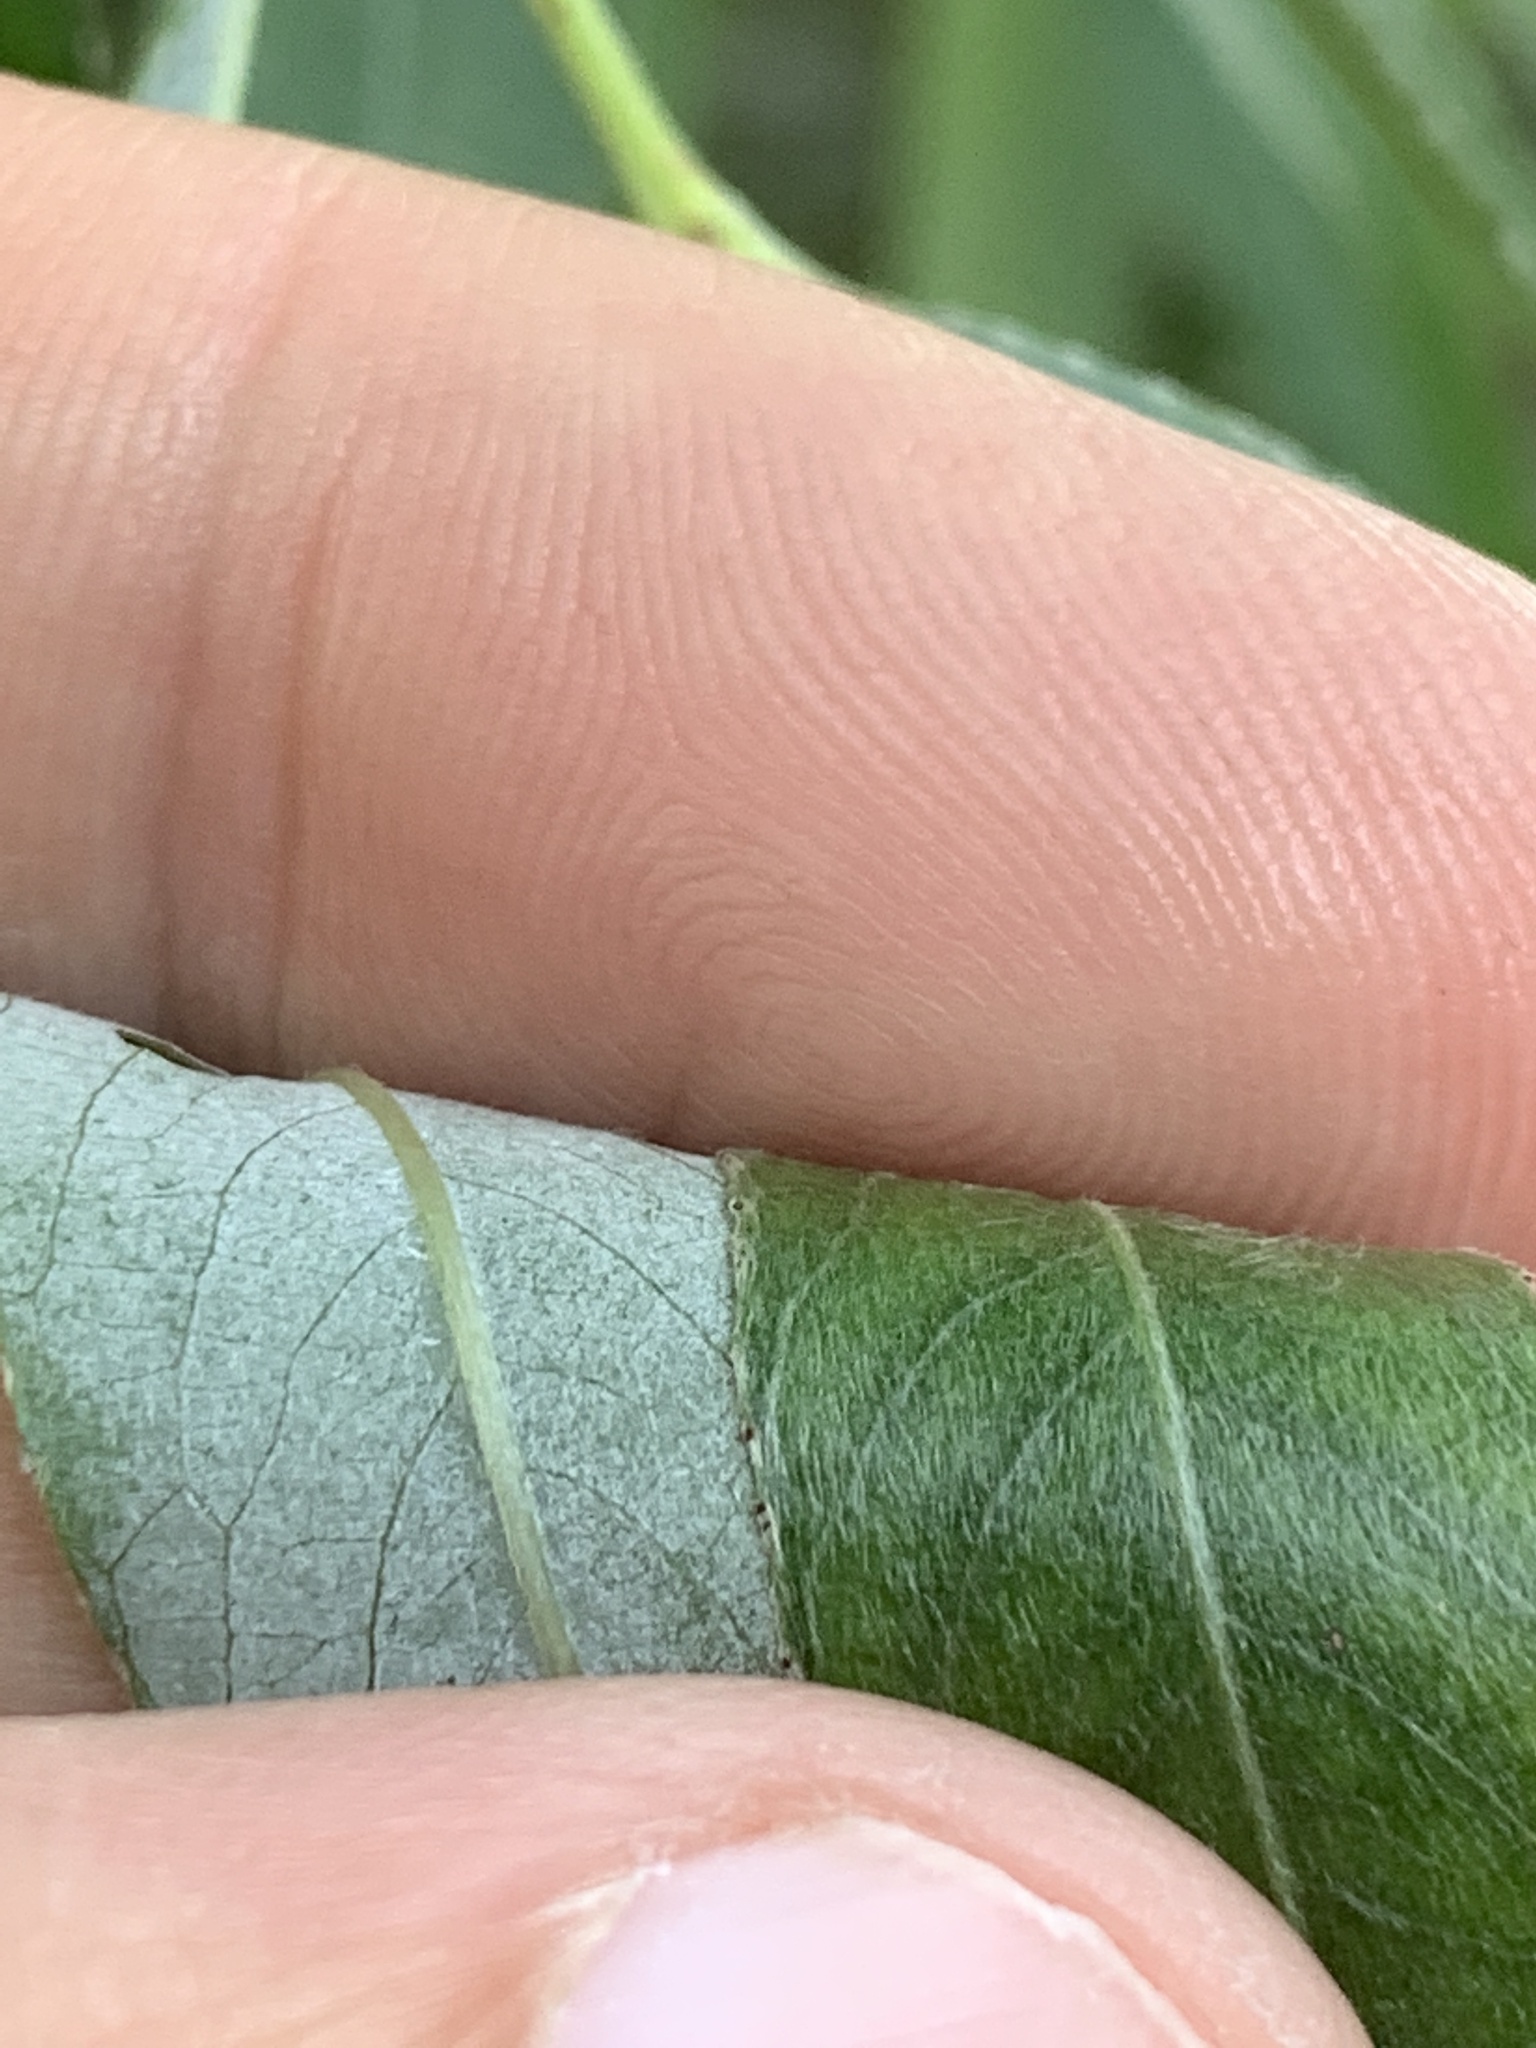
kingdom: Plantae
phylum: Tracheophyta
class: Magnoliopsida
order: Malpighiales
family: Salicaceae
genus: Salix
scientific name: Salix alba
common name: White willow
